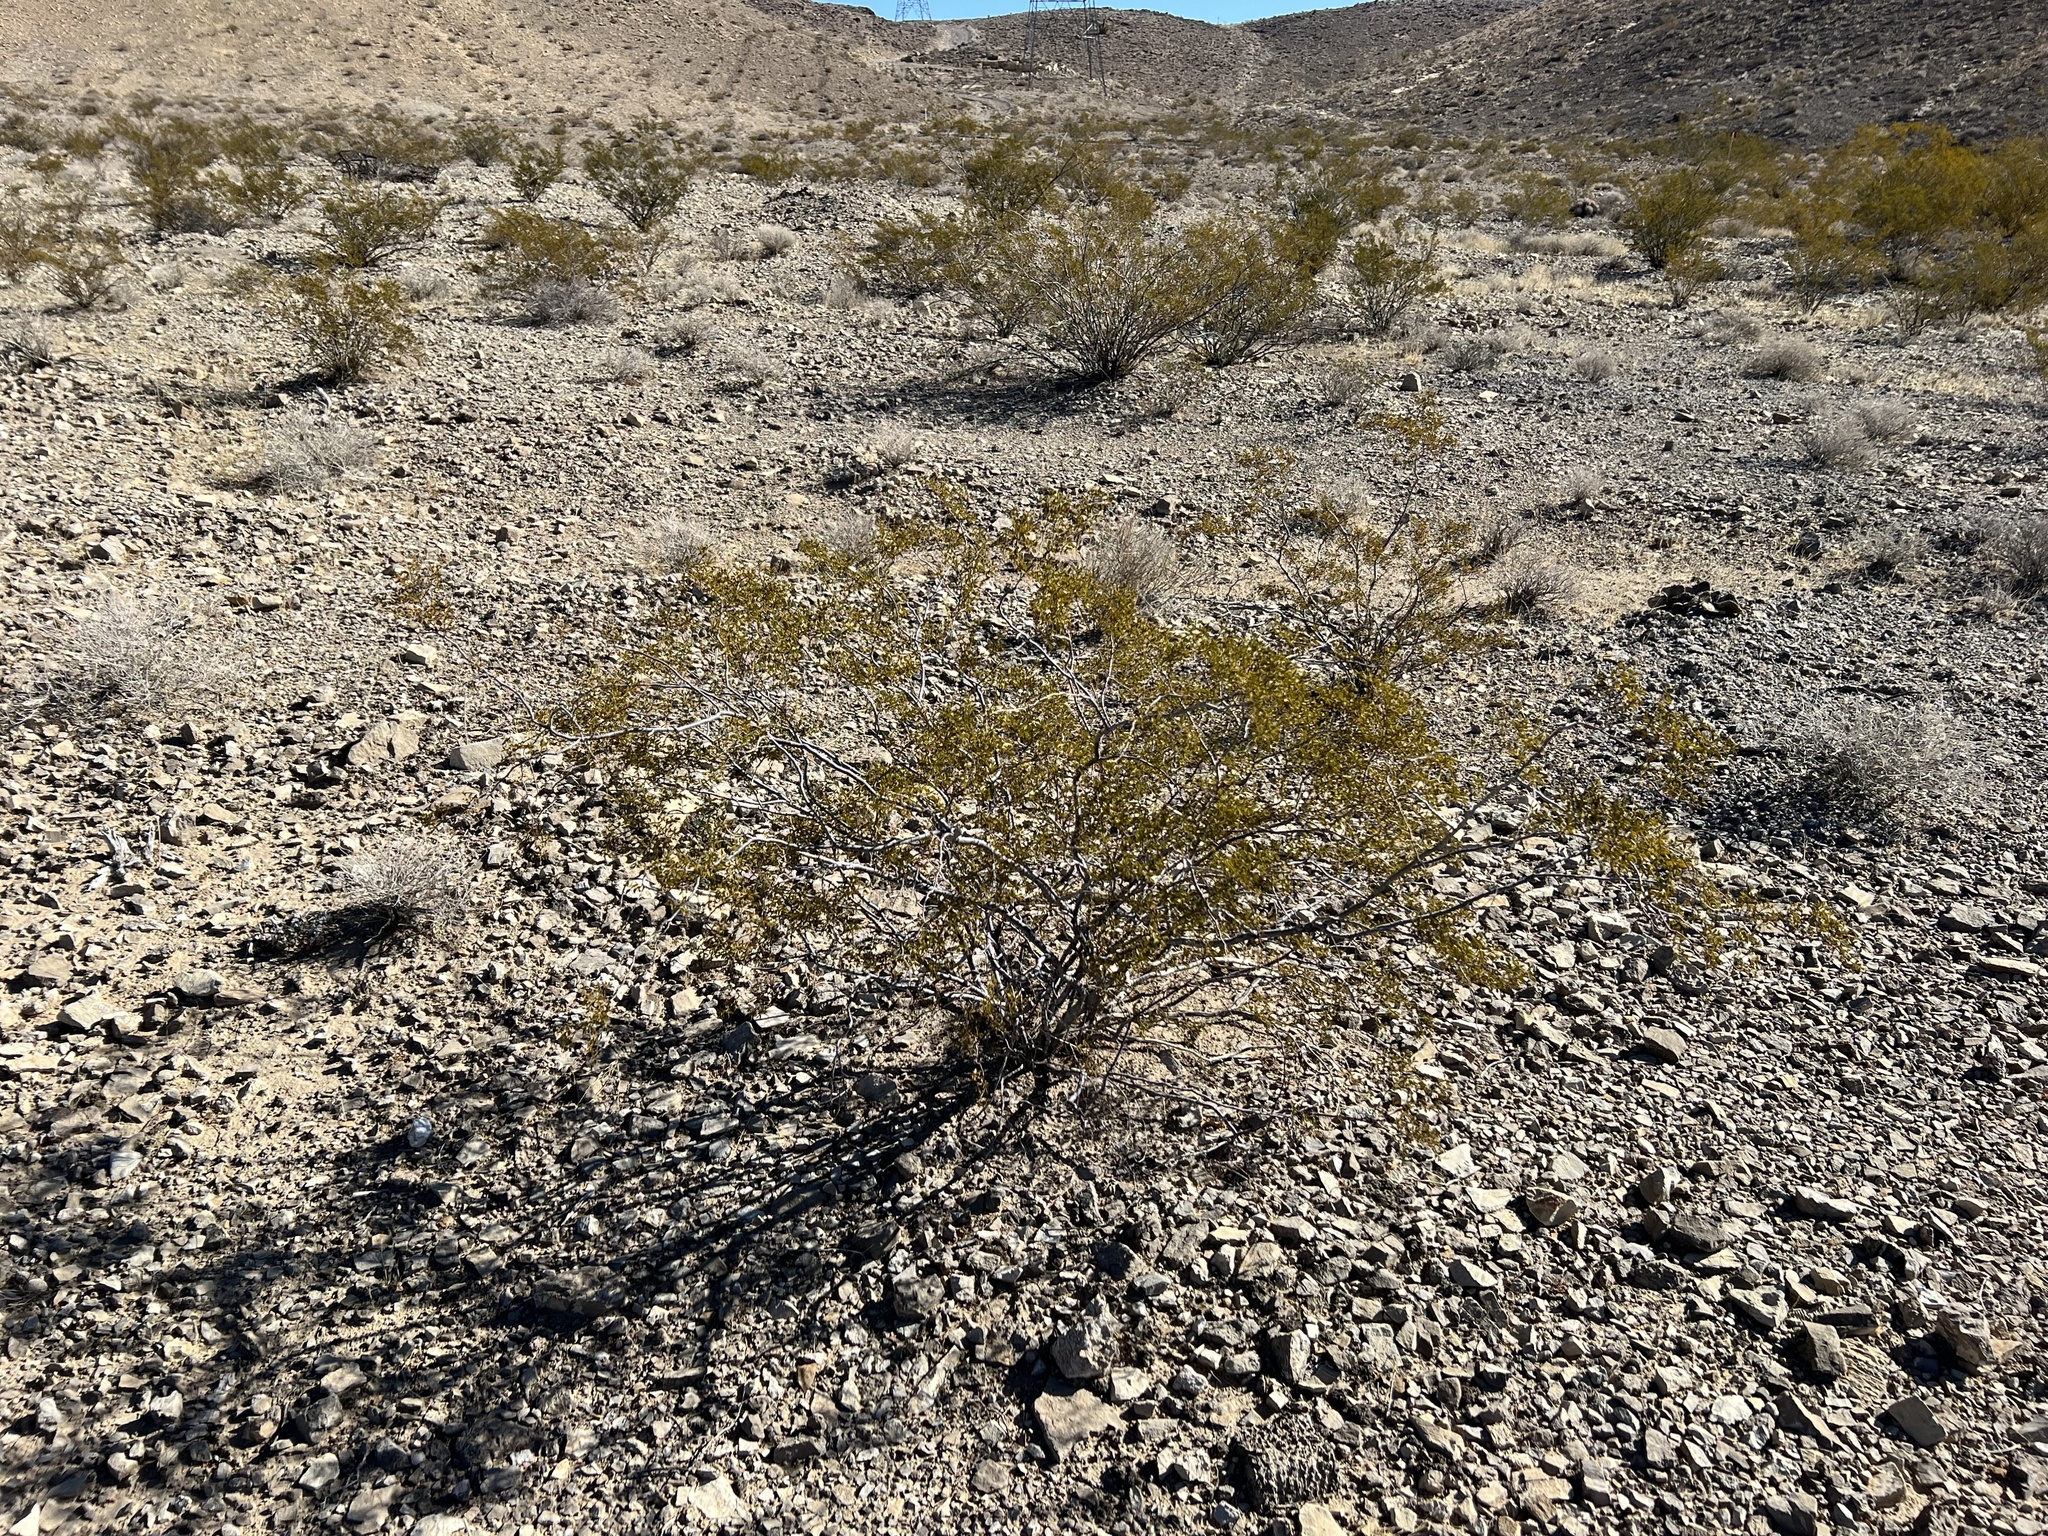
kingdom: Plantae
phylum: Tracheophyta
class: Magnoliopsida
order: Zygophyllales
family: Zygophyllaceae
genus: Larrea
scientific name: Larrea tridentata
